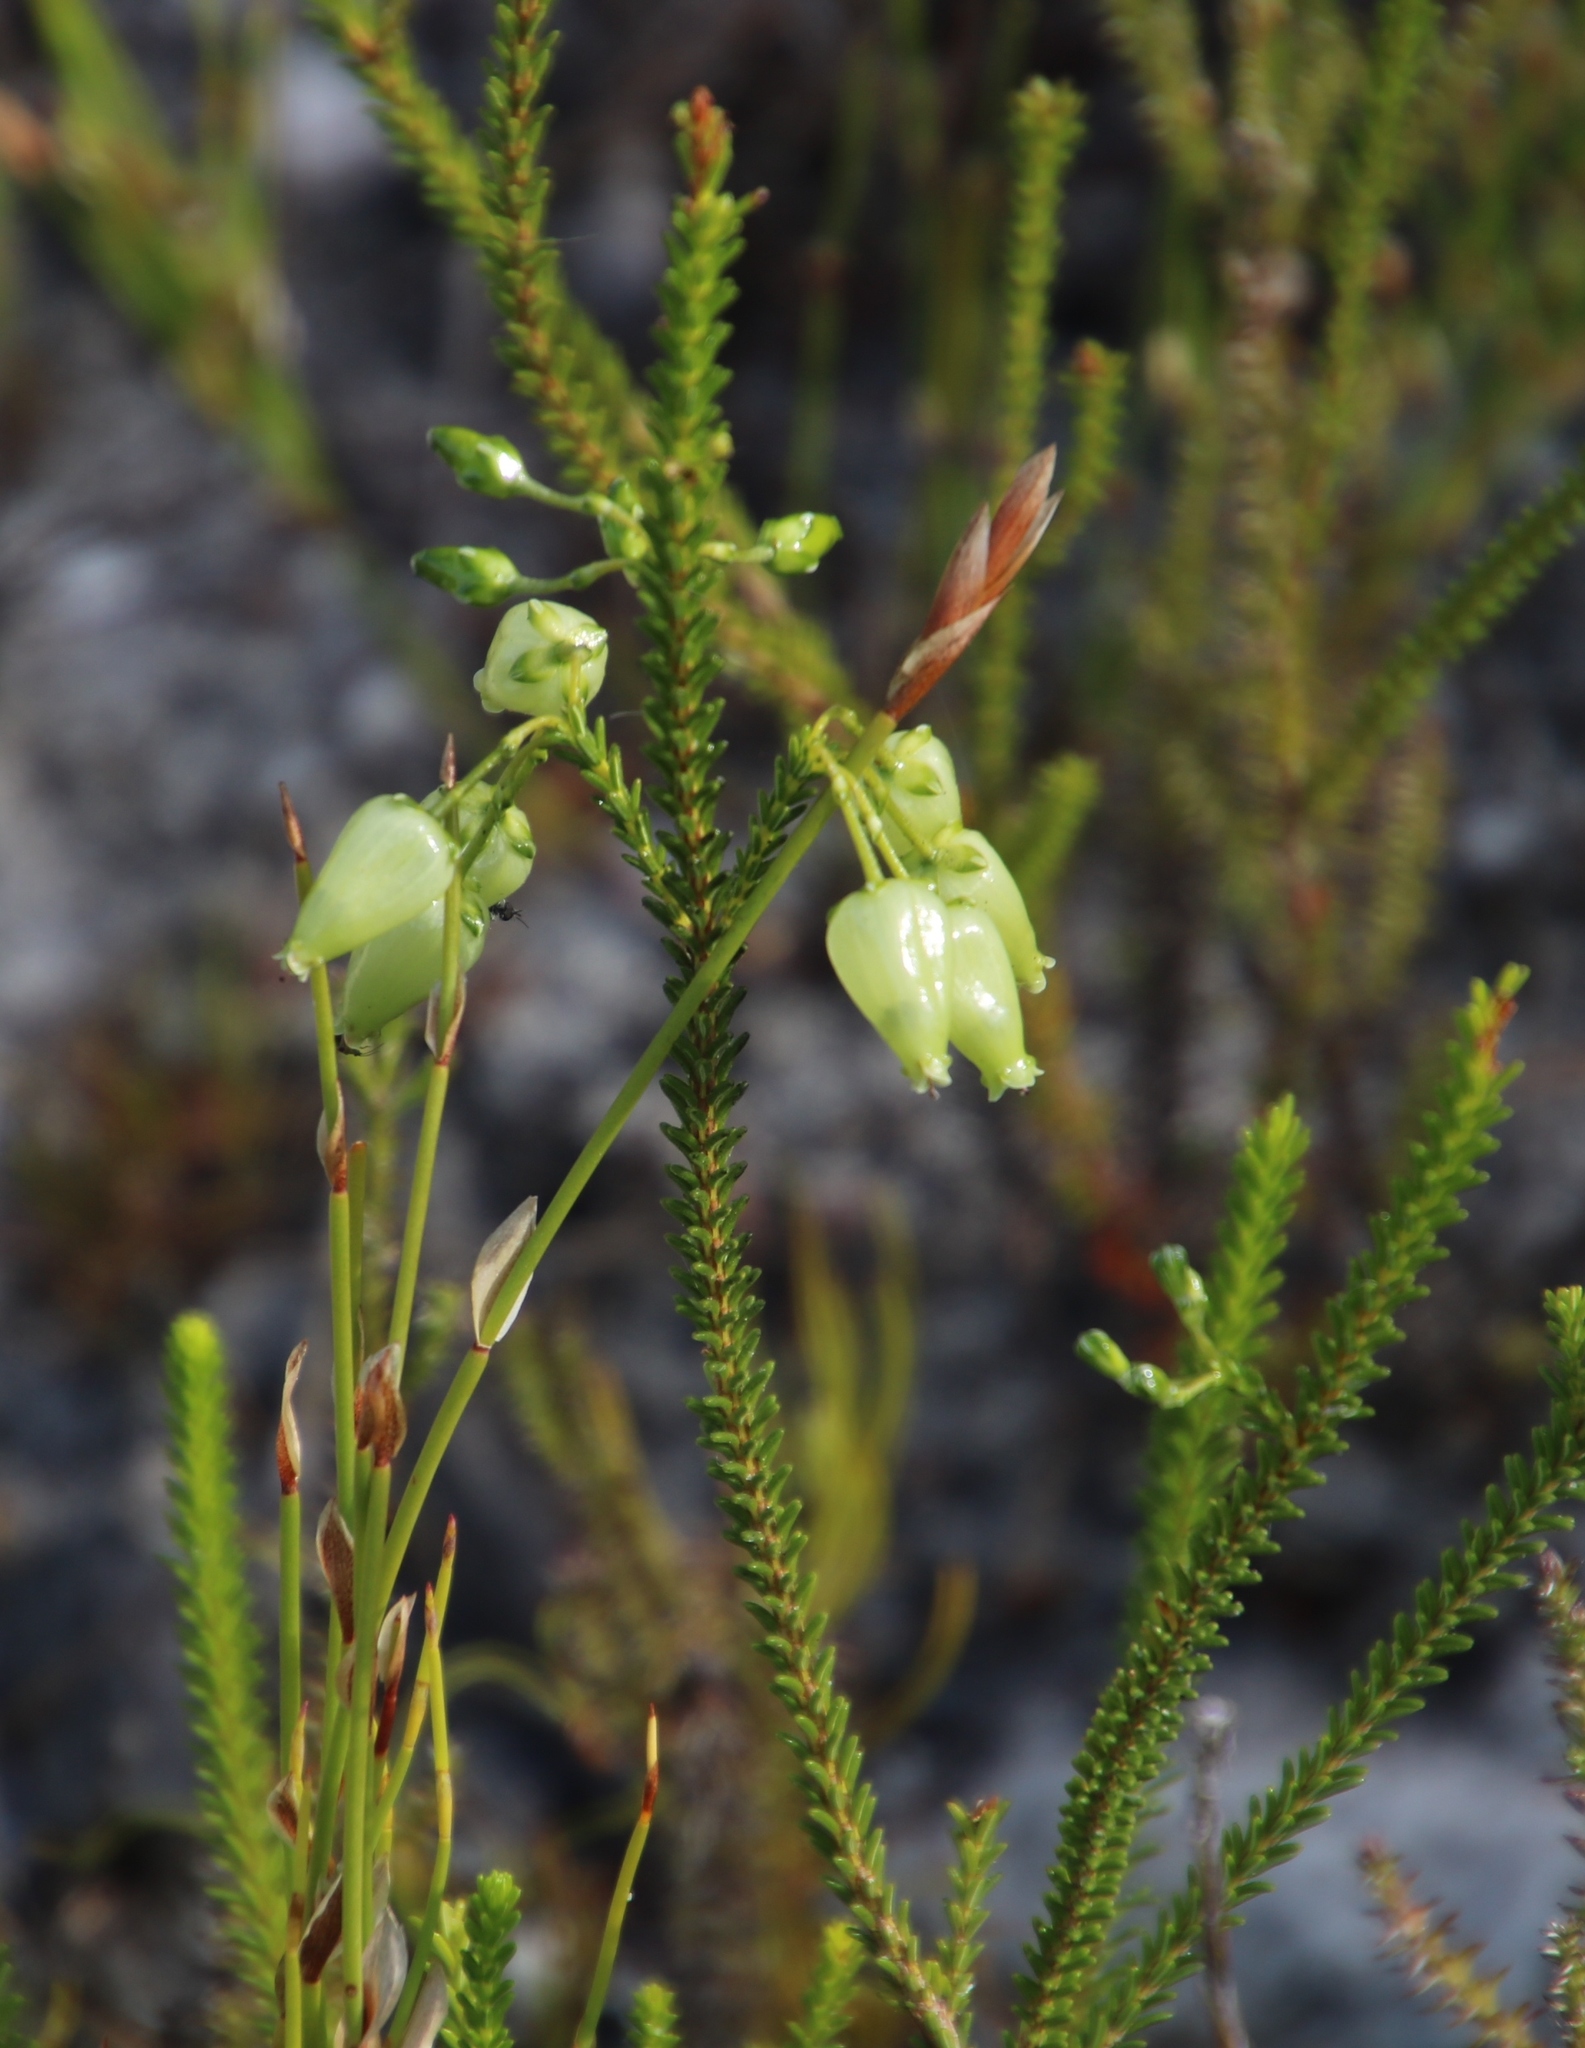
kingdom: Plantae
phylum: Tracheophyta
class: Magnoliopsida
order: Ericales
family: Ericaceae
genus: Erica
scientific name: Erica urna-viridis
